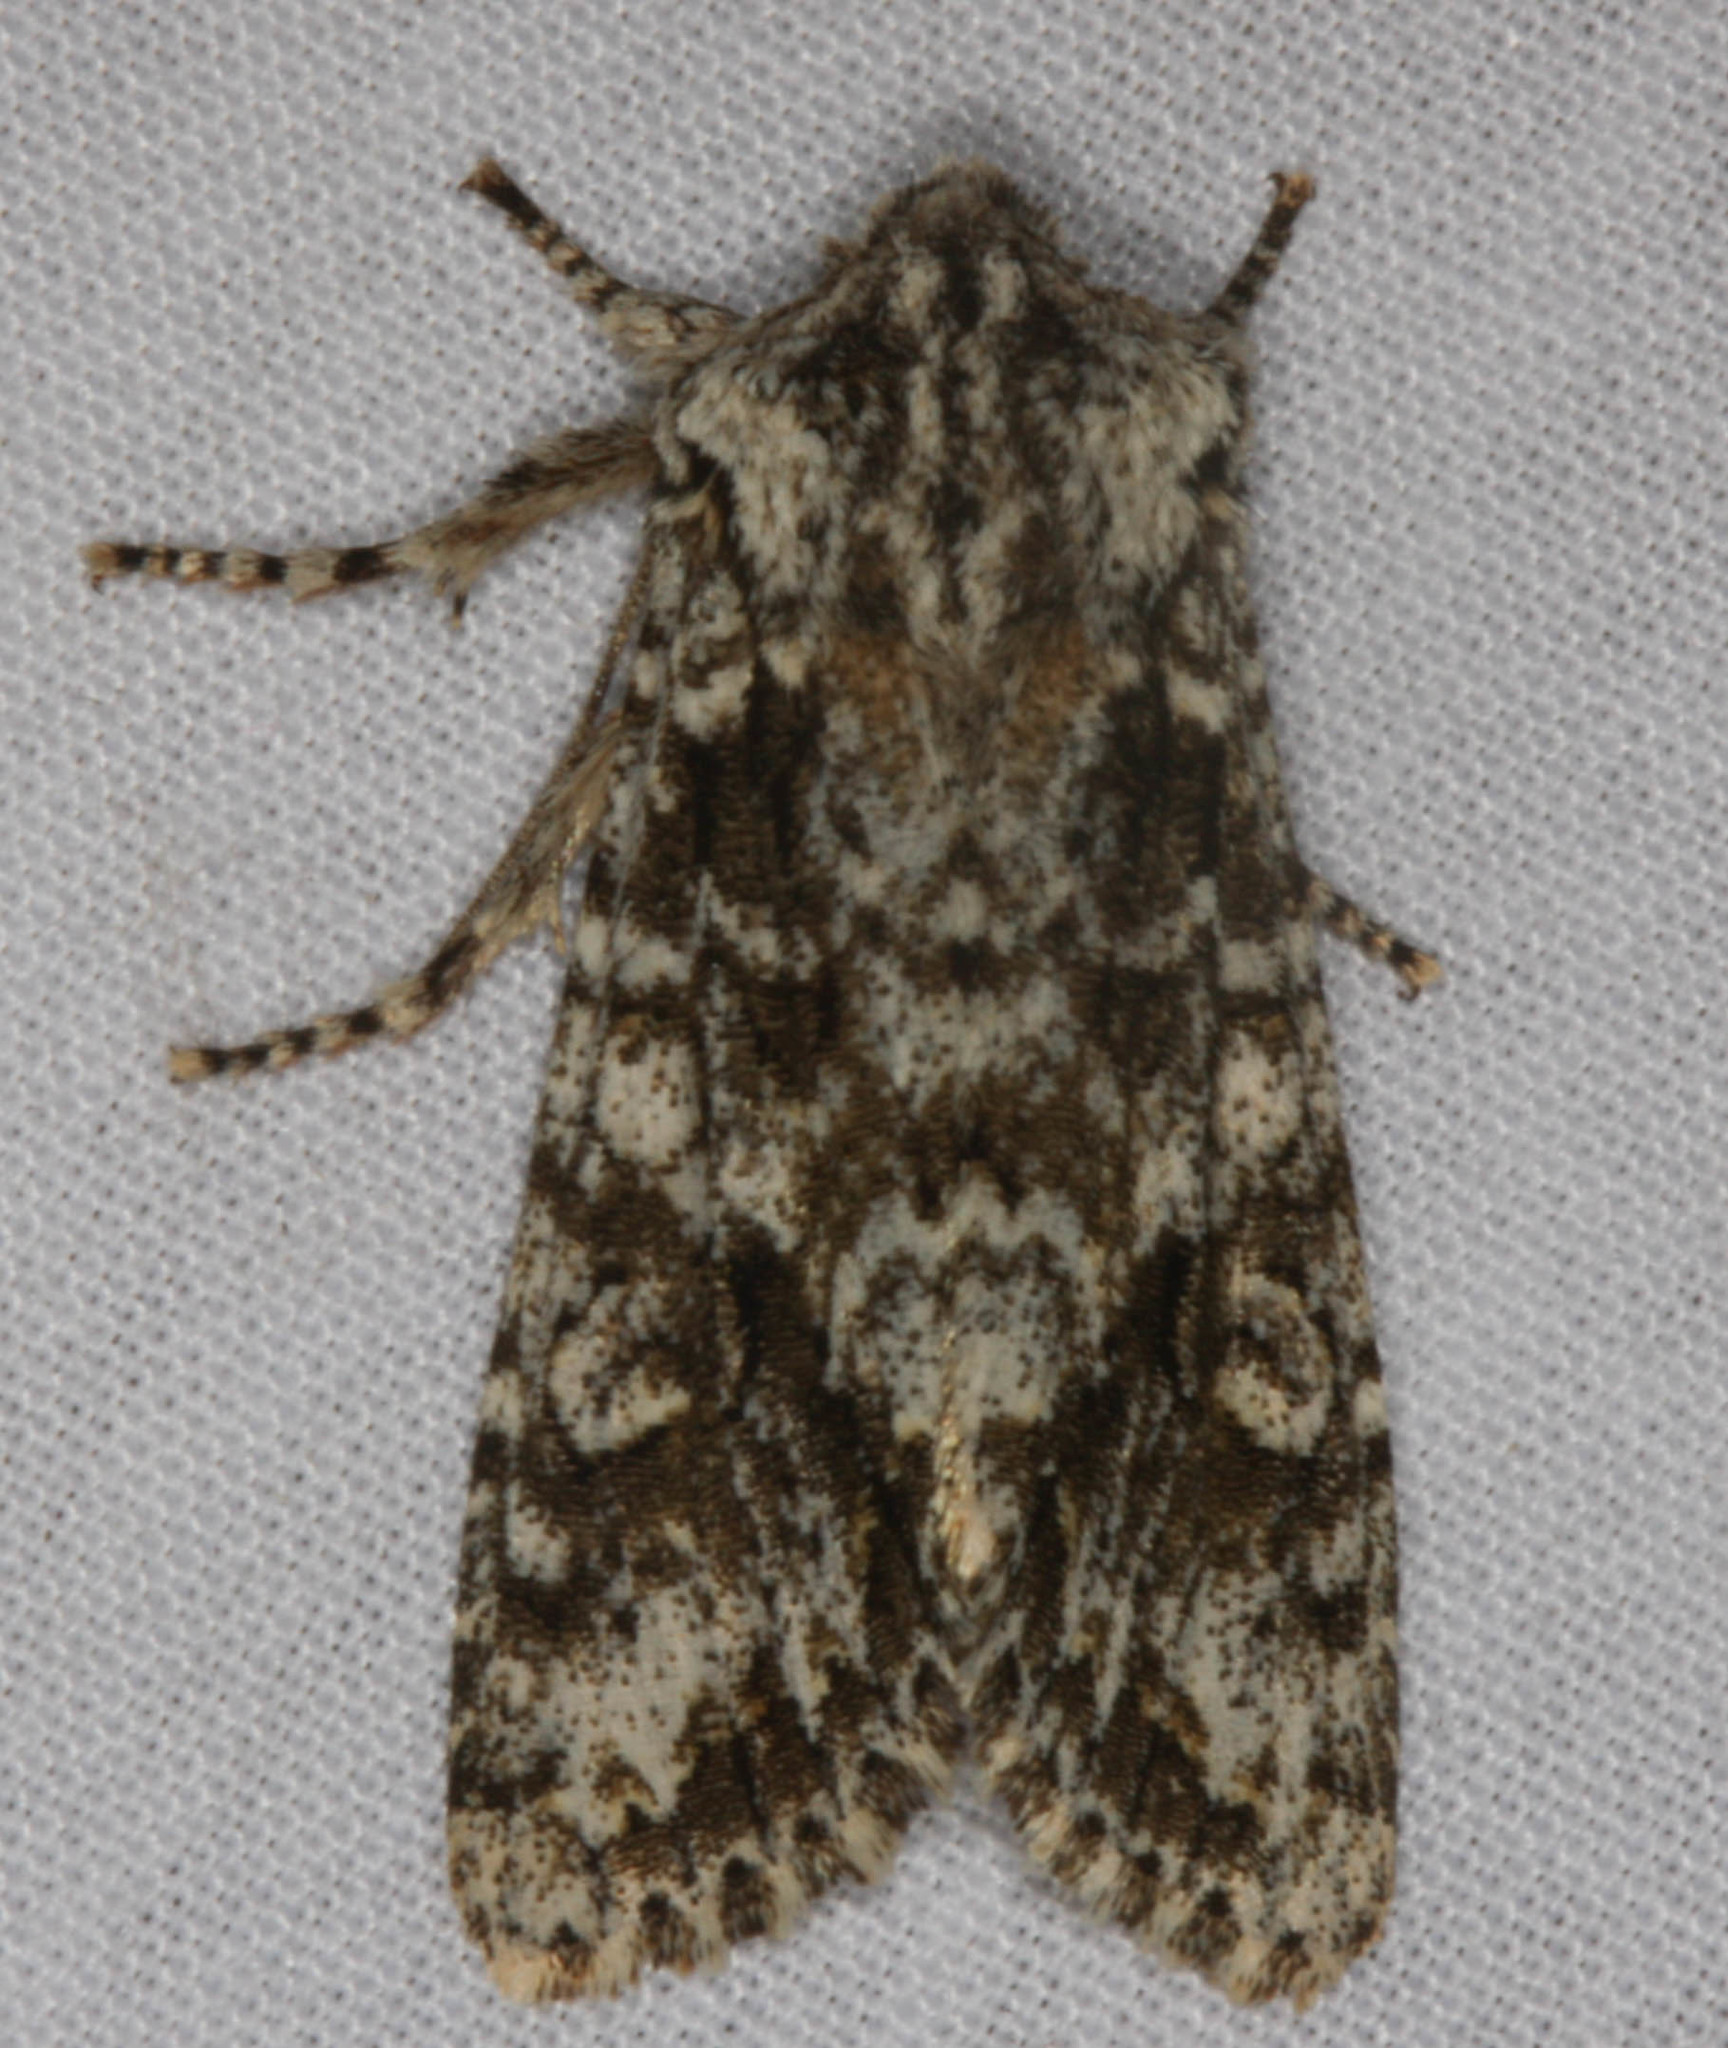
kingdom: Animalia
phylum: Arthropoda
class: Insecta
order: Lepidoptera
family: Noctuidae
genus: Egira
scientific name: Egira cognata
